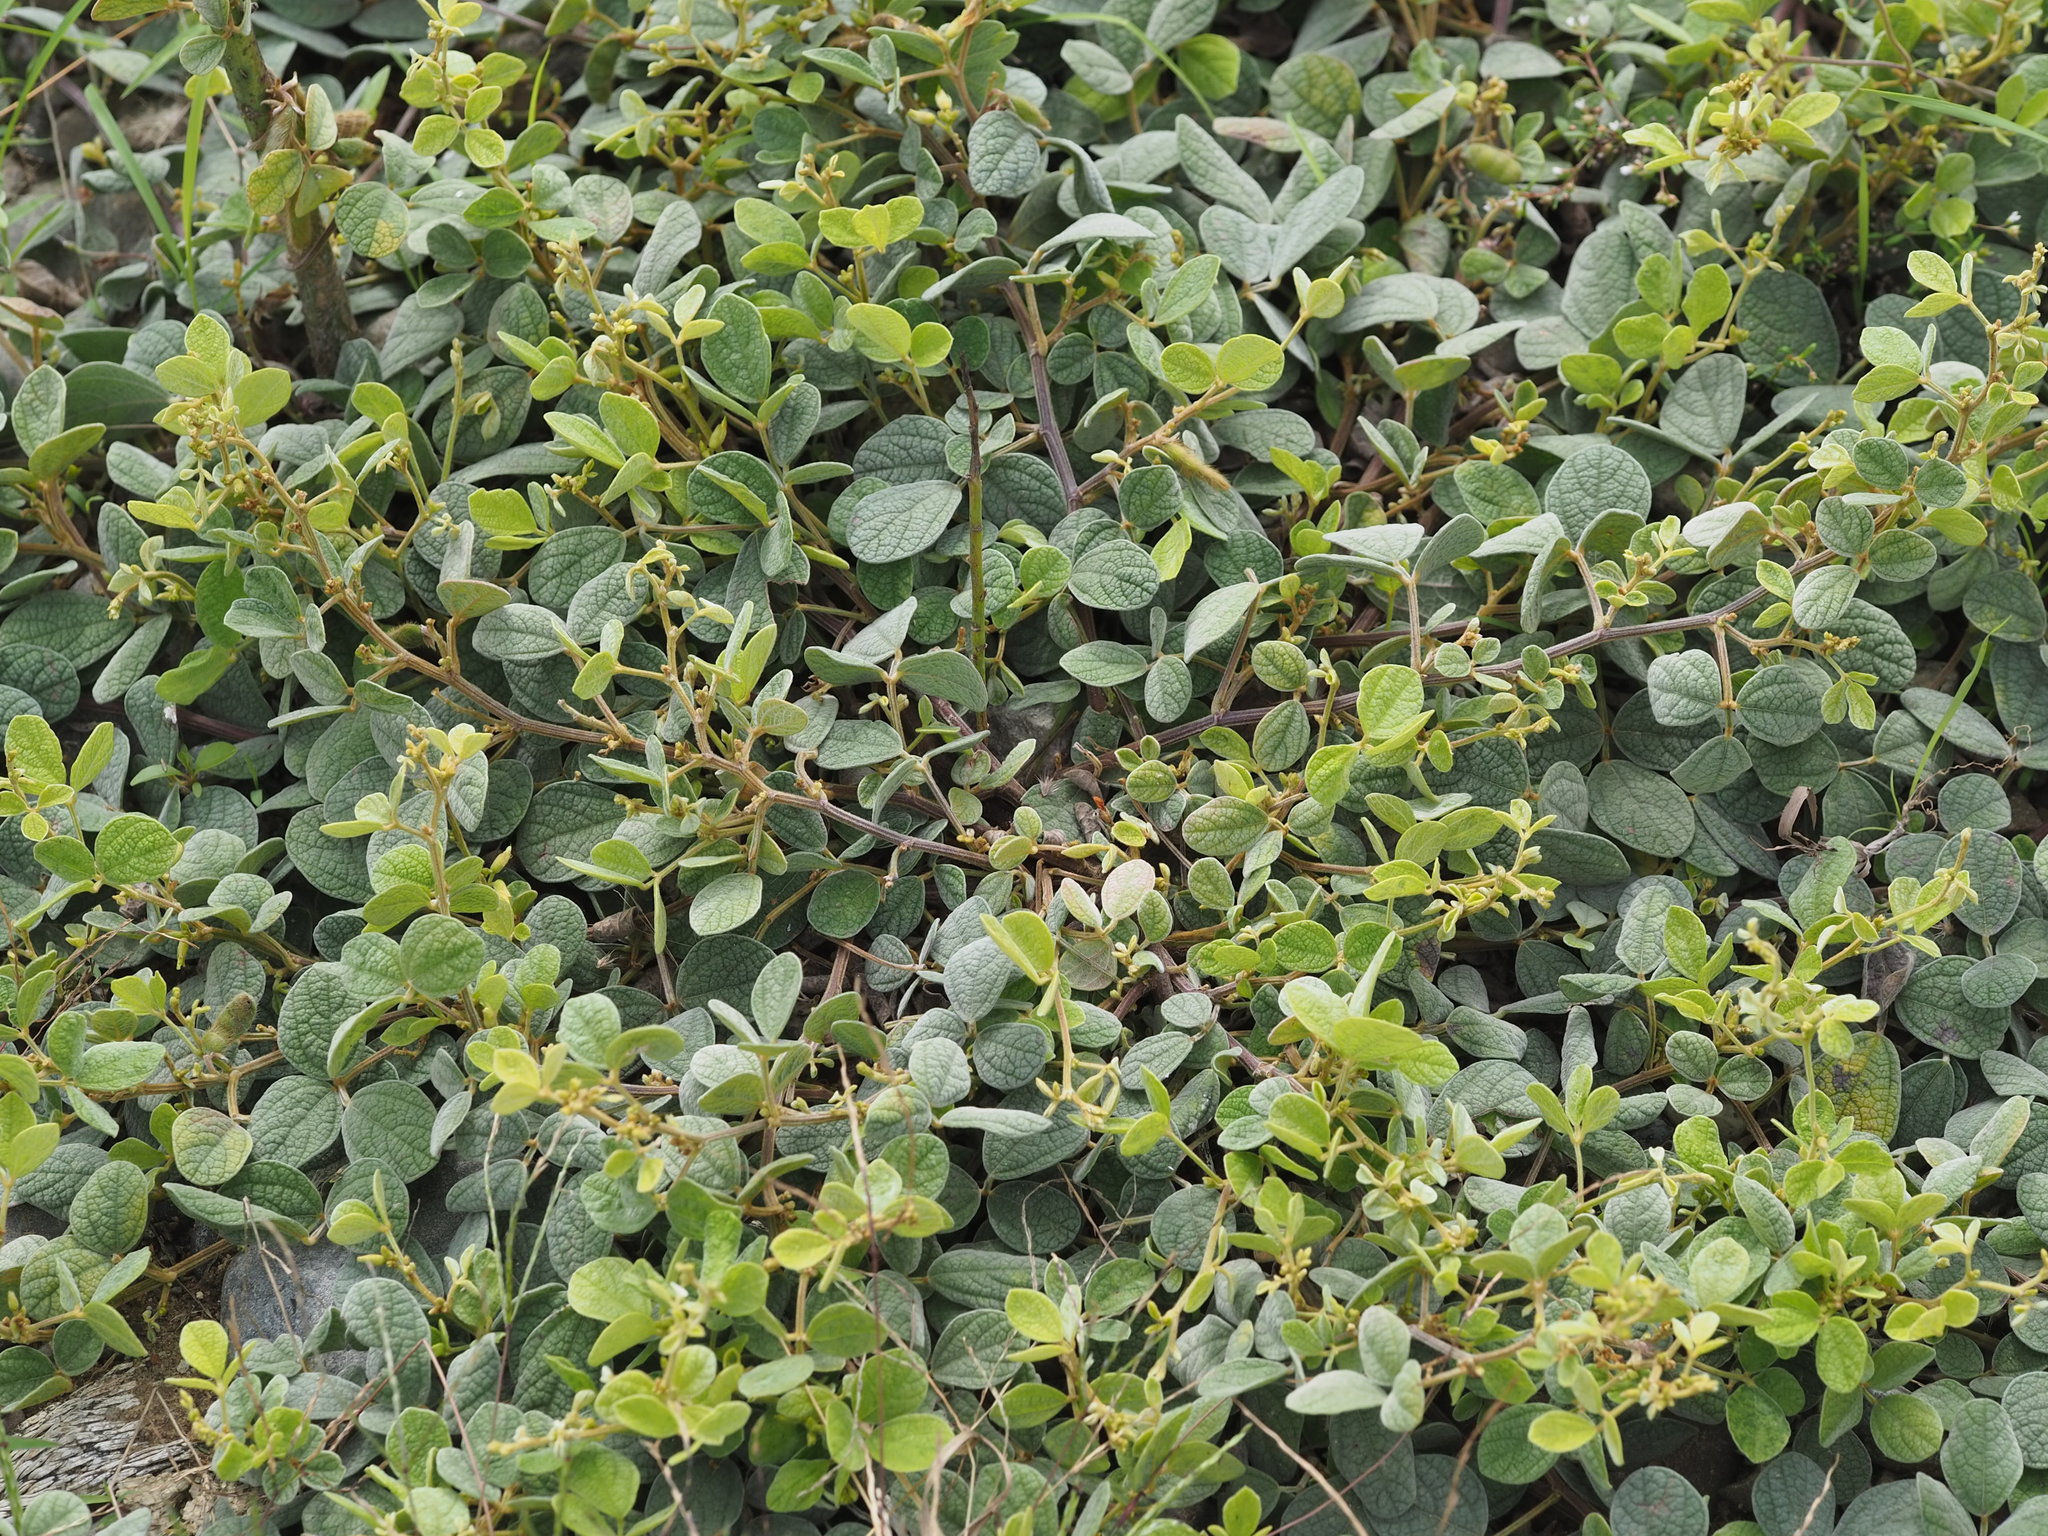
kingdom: Plantae
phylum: Tracheophyta
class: Magnoliopsida
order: Fabales
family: Fabaceae
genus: Cajanus
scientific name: Cajanus scarabaeoides
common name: Showy pigeonpea
